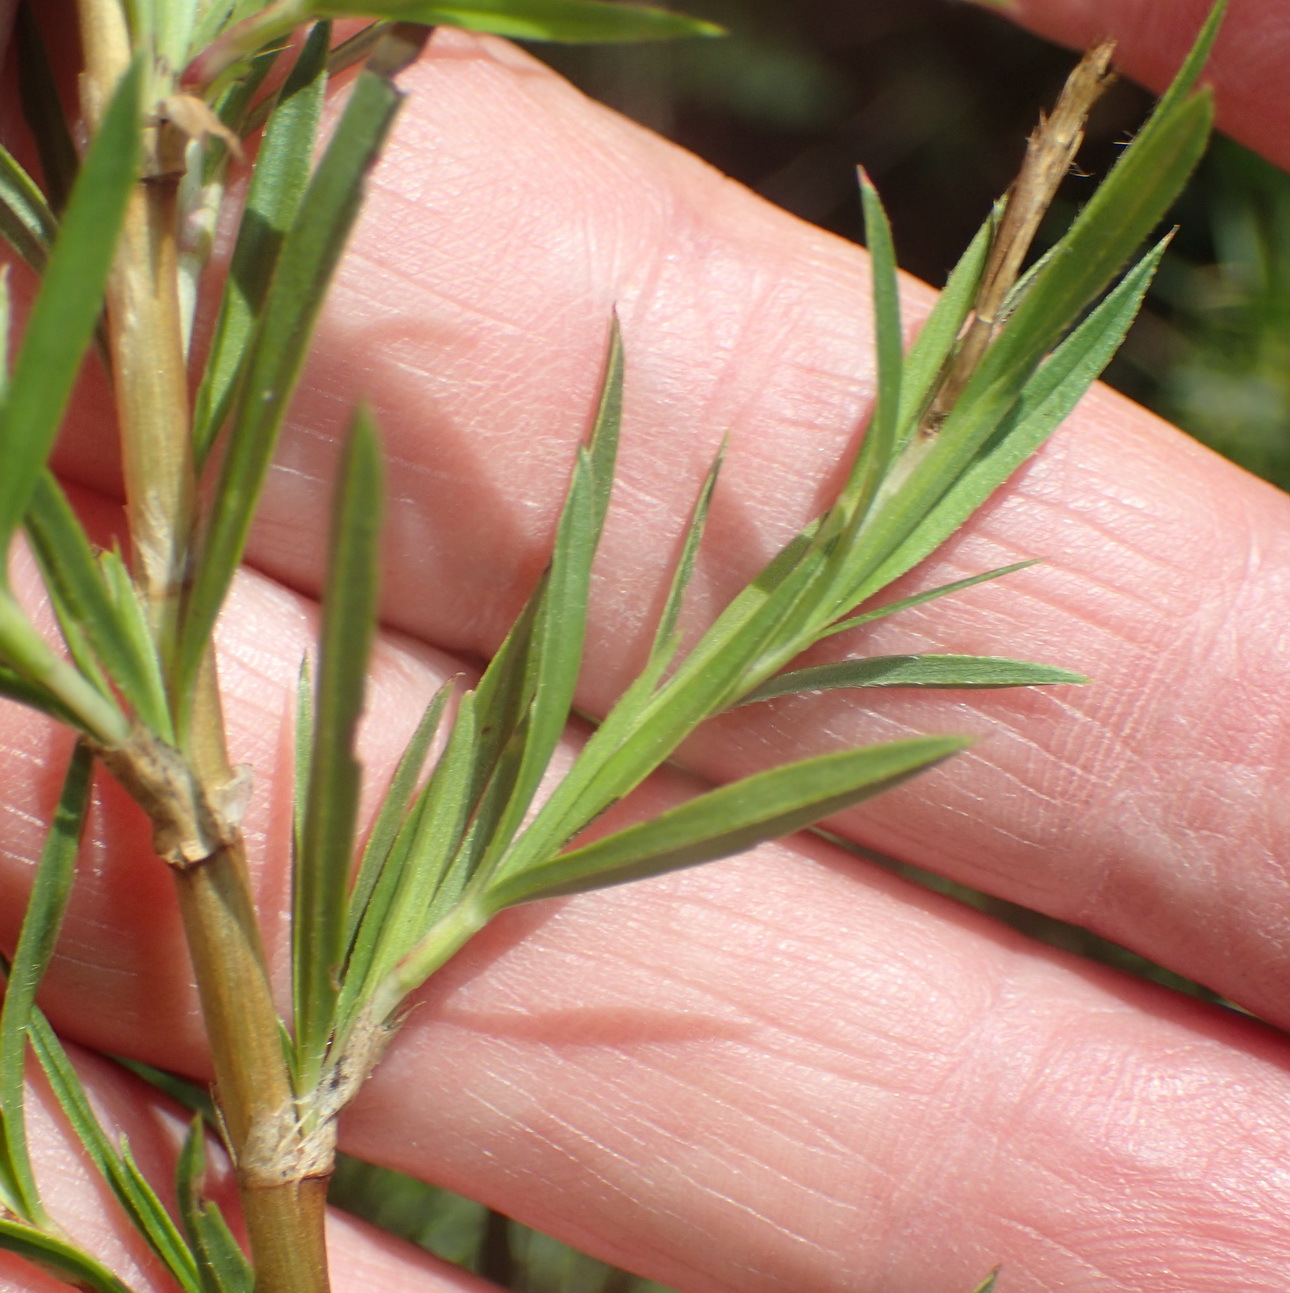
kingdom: Plantae
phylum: Tracheophyta
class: Magnoliopsida
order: Rosales
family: Rosaceae
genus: Cliffortia
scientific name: Cliffortia strobilifera
